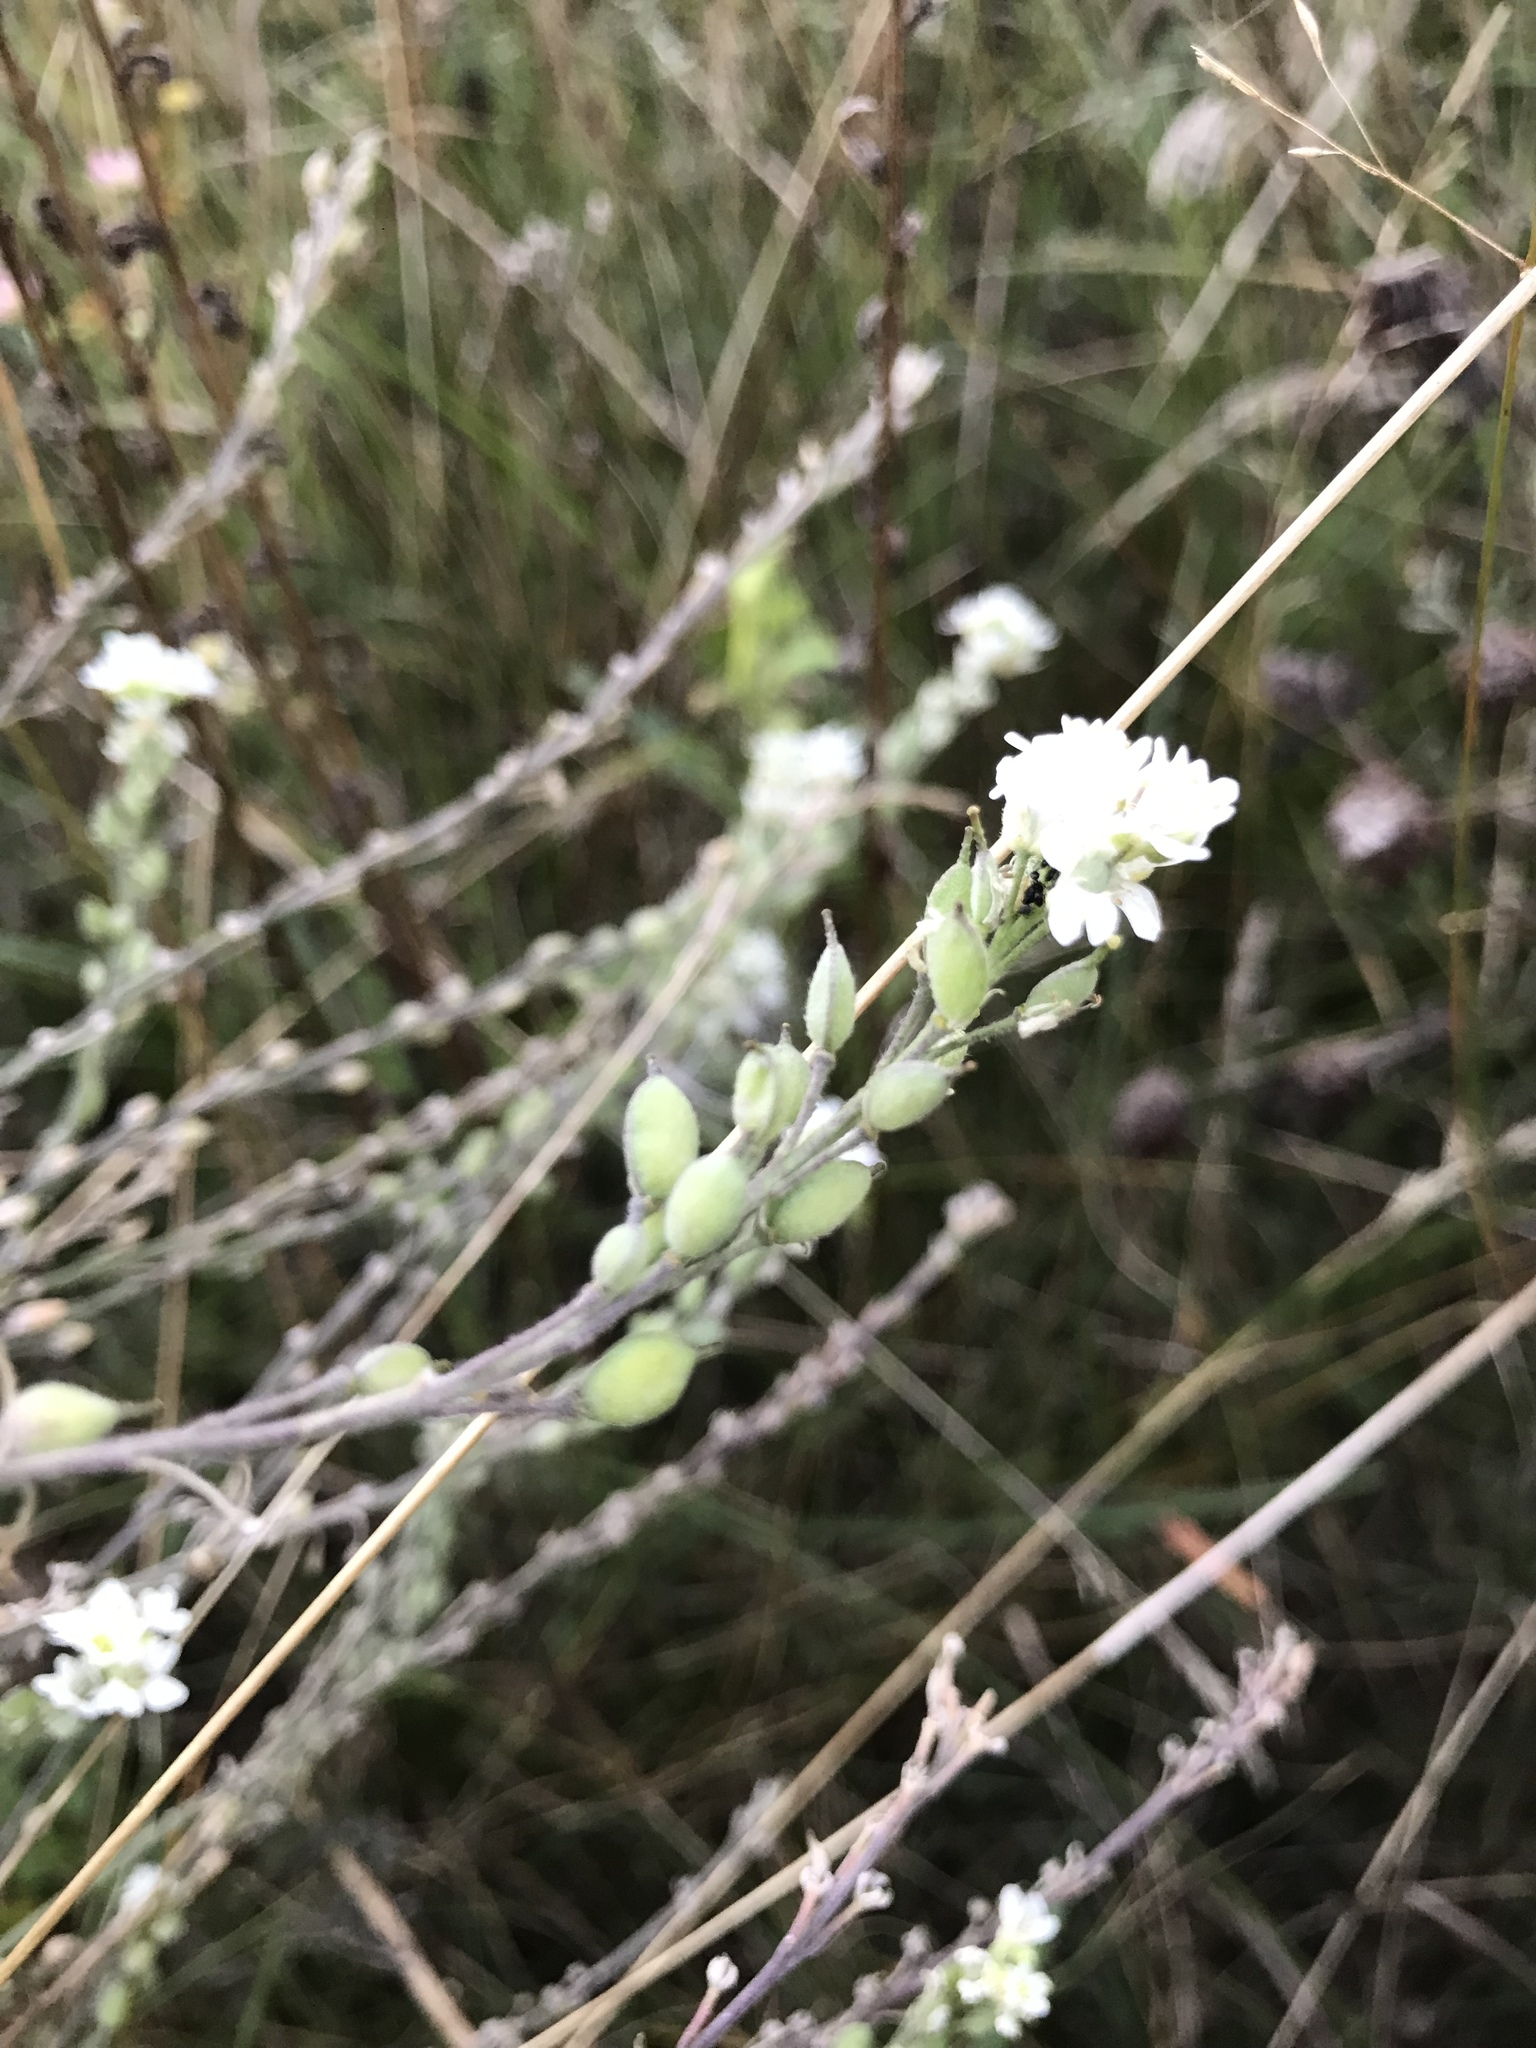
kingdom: Plantae
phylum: Tracheophyta
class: Magnoliopsida
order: Brassicales
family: Brassicaceae
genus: Berteroa
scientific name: Berteroa incana
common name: Hoary alison
